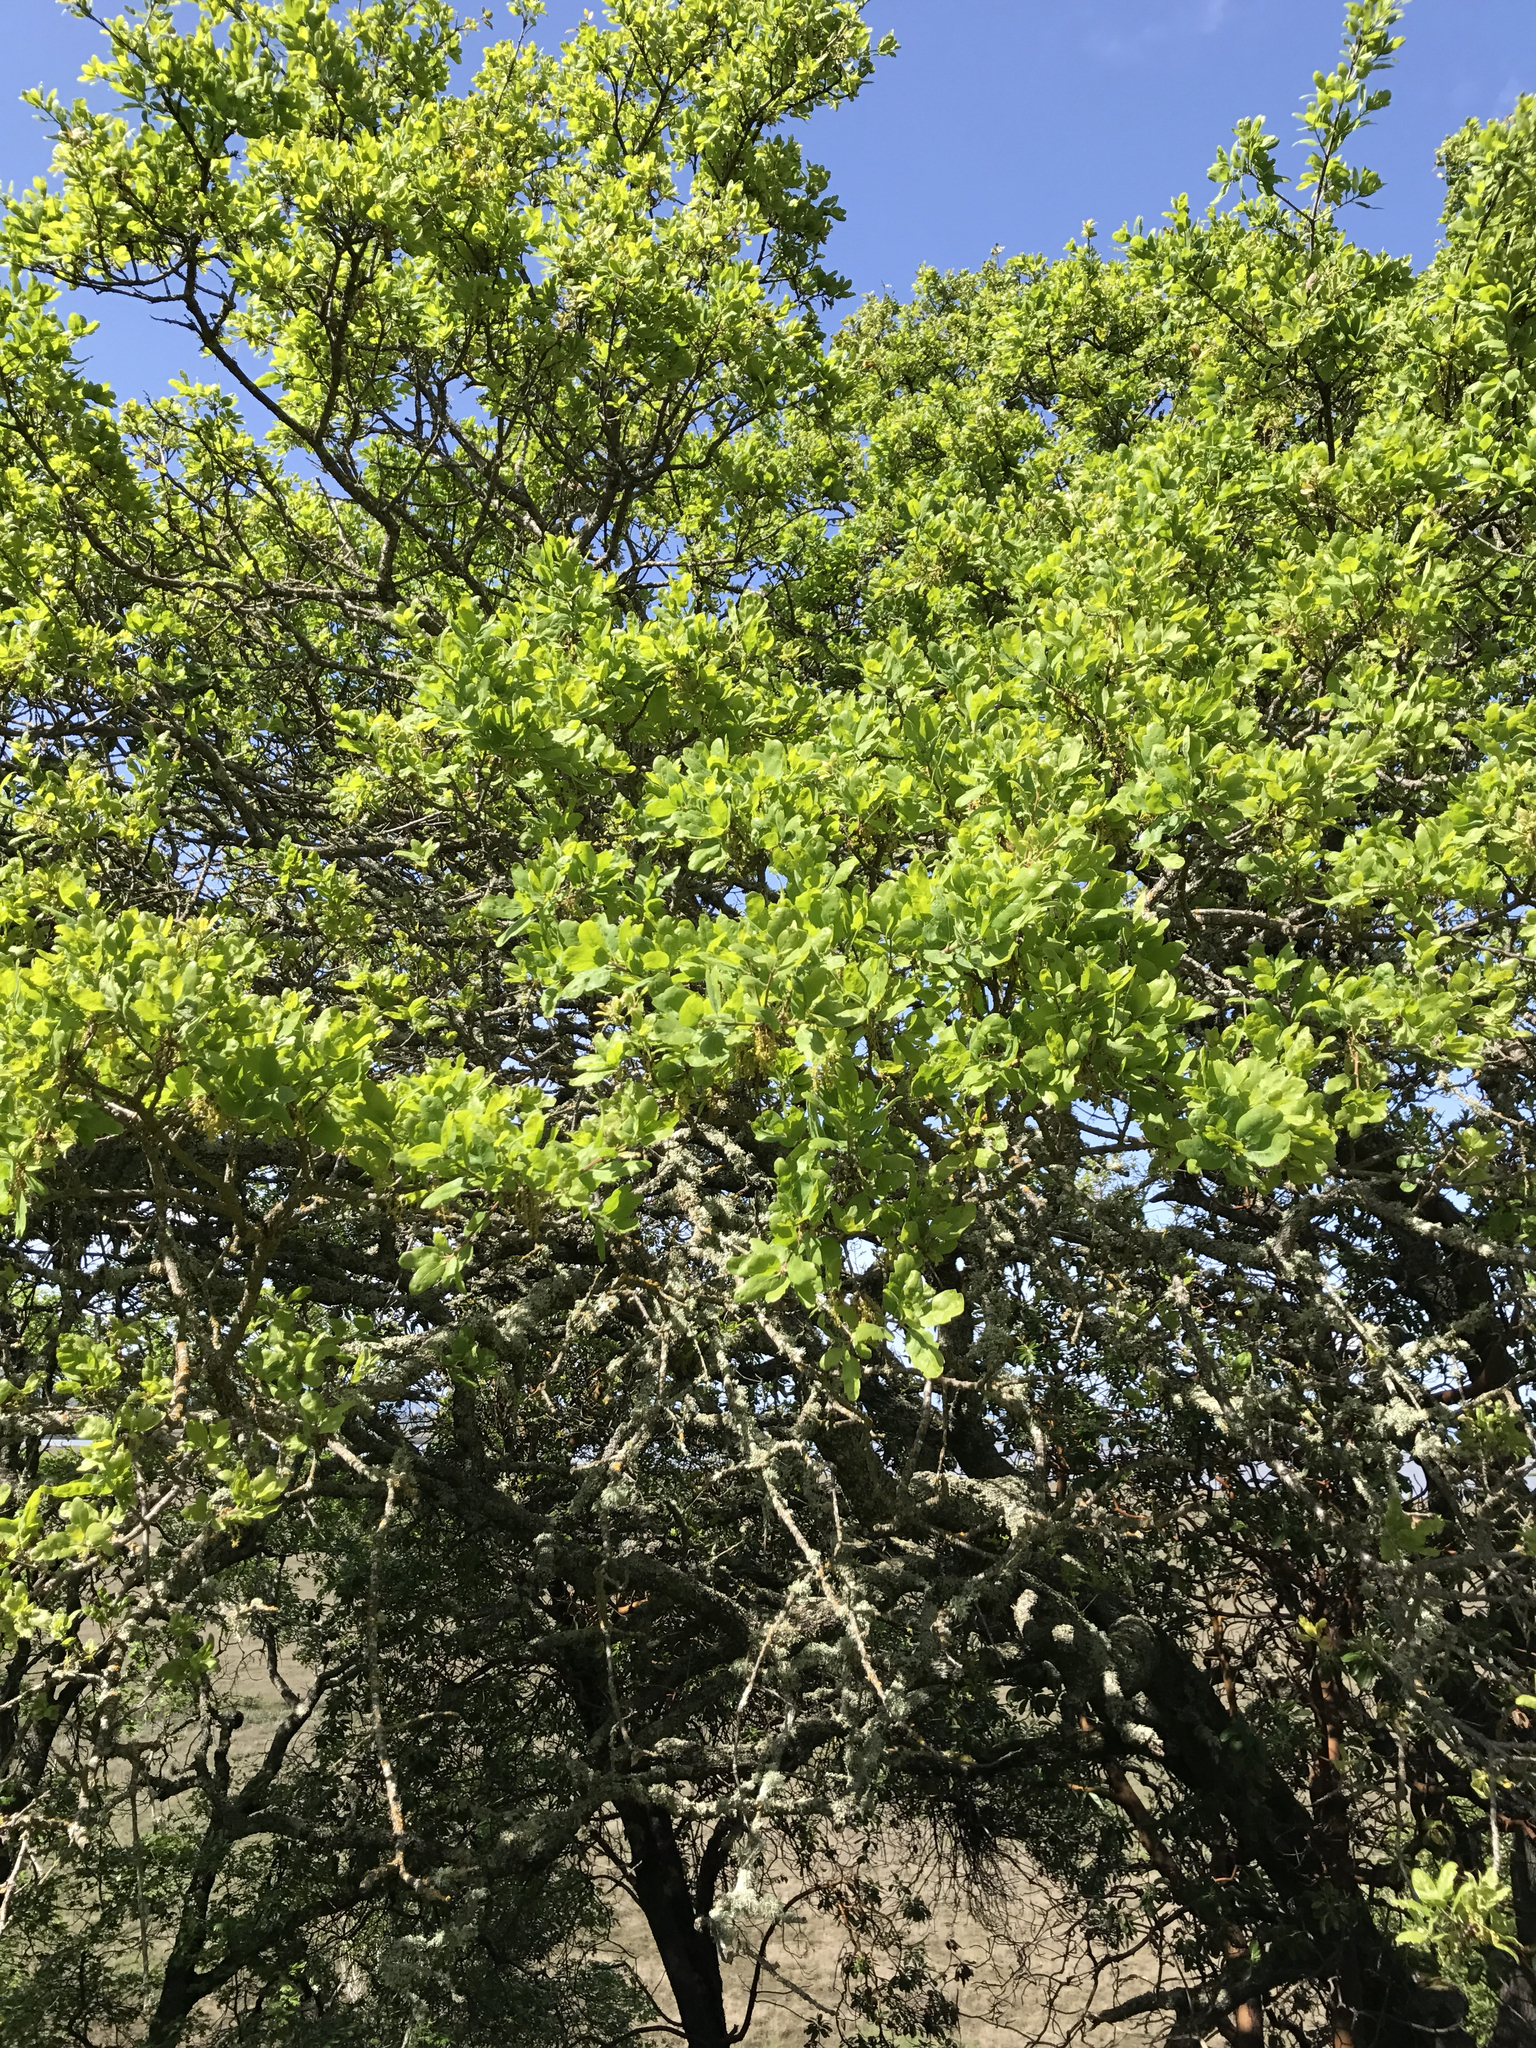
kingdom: Plantae
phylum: Tracheophyta
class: Magnoliopsida
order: Fagales
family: Fagaceae
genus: Quercus
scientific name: Quercus douglasii
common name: Blue oak
